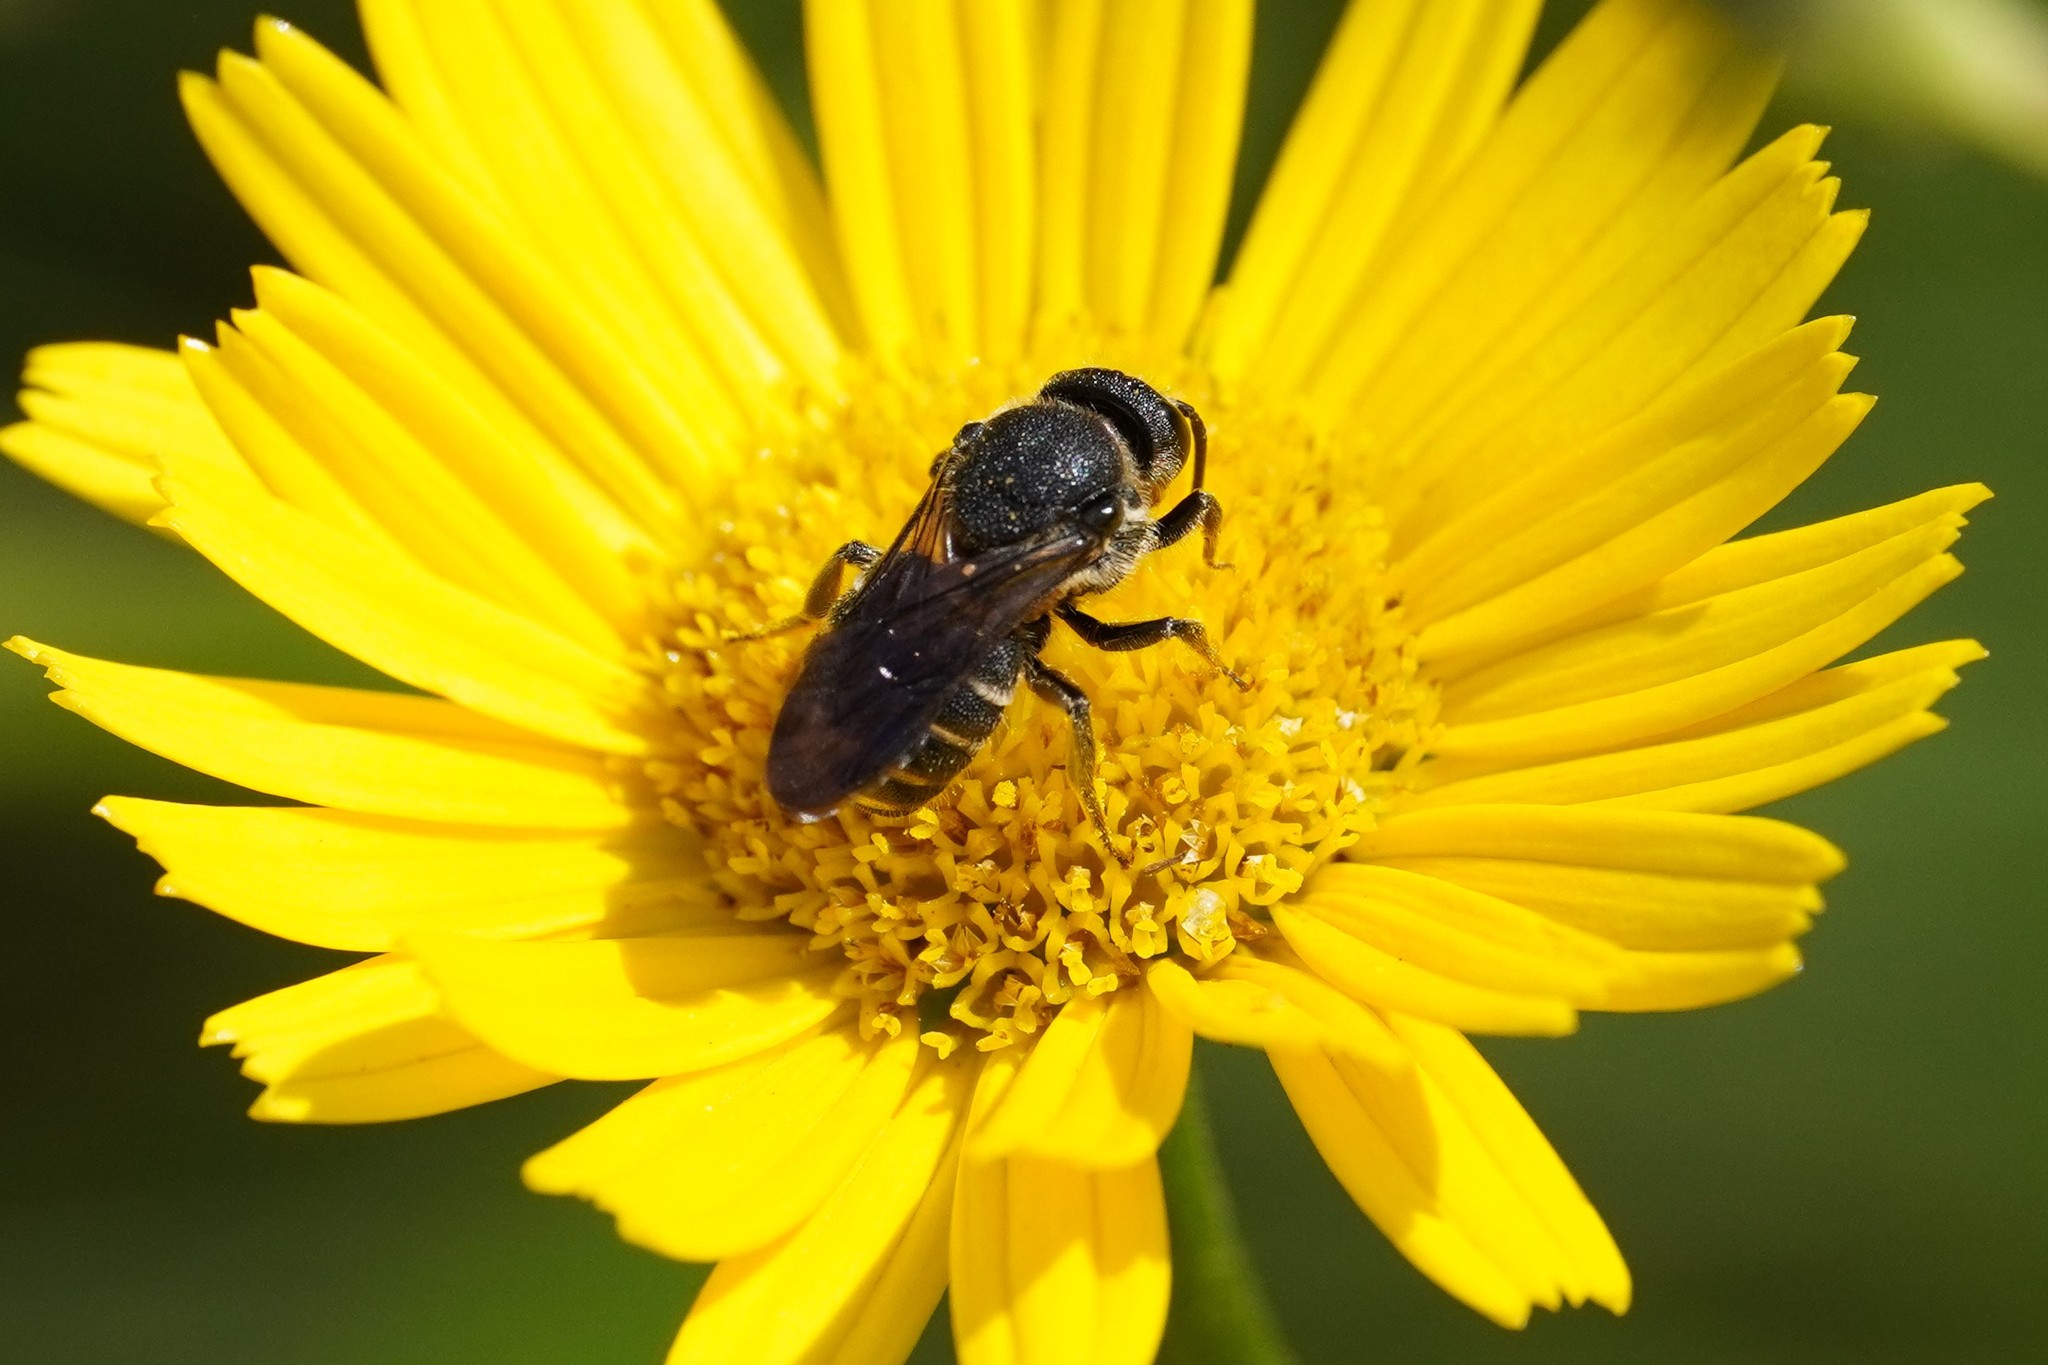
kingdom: Animalia
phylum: Arthropoda
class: Insecta
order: Hymenoptera
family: Megachilidae
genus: Stelis
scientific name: Stelis punctulatissima
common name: Banded dark bee
